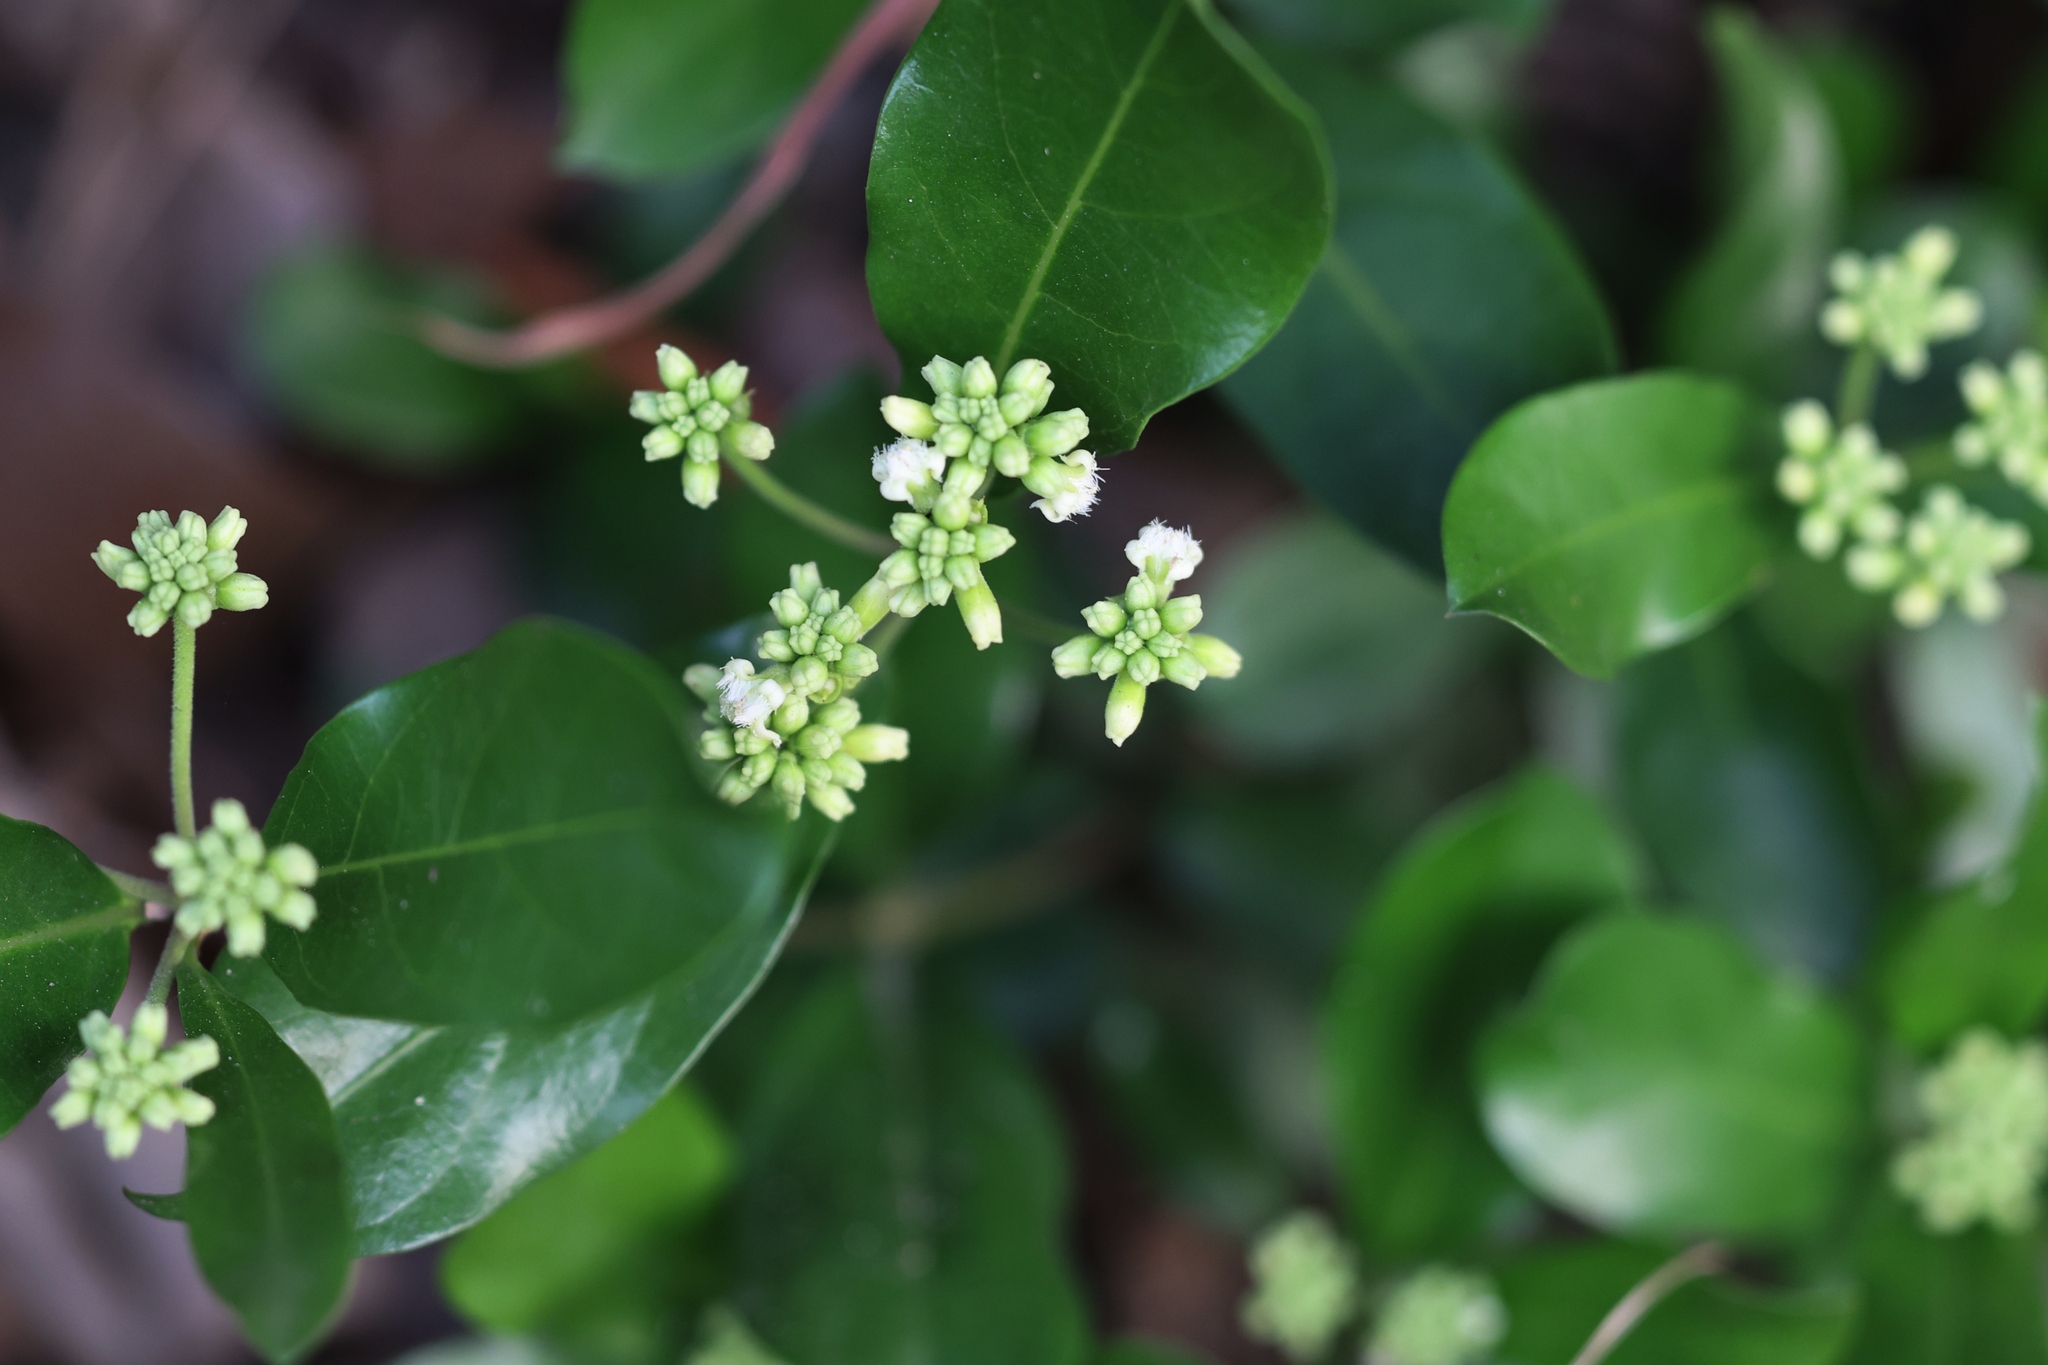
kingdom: Plantae
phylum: Tracheophyta
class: Magnoliopsida
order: Gentianales
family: Rubiaceae
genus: Gynochthodes
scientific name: Gynochthodes parvifolia
